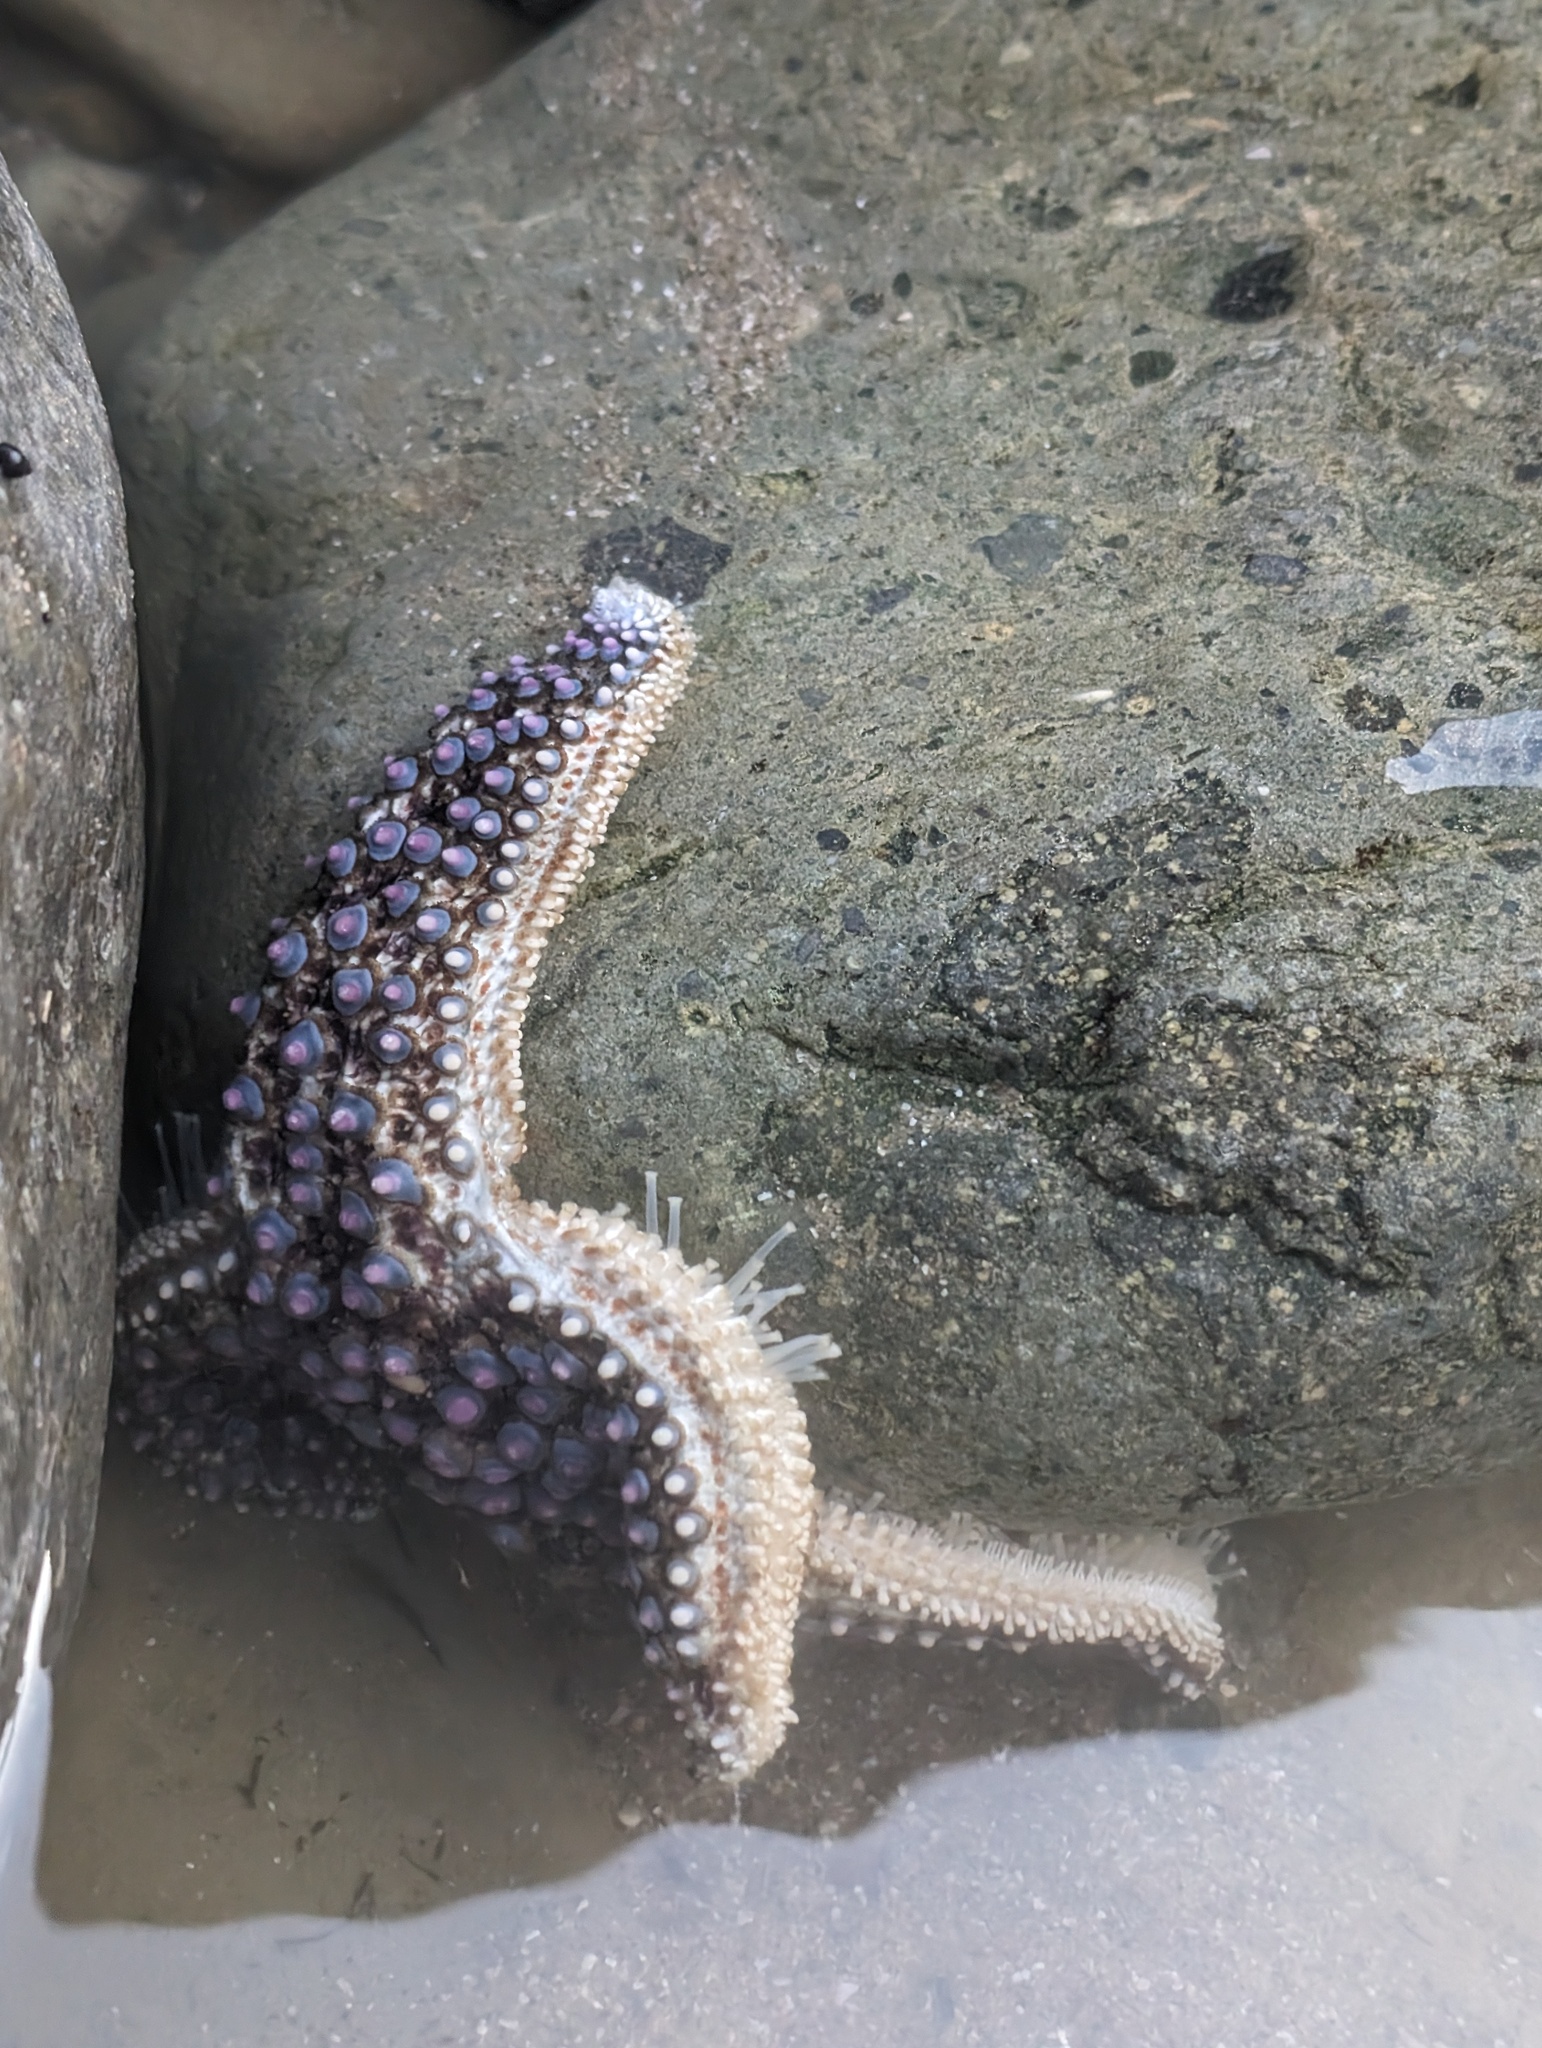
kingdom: Animalia
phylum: Echinodermata
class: Asteroidea
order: Forcipulatida
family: Asteriidae
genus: Pisaster
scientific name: Pisaster giganteus
